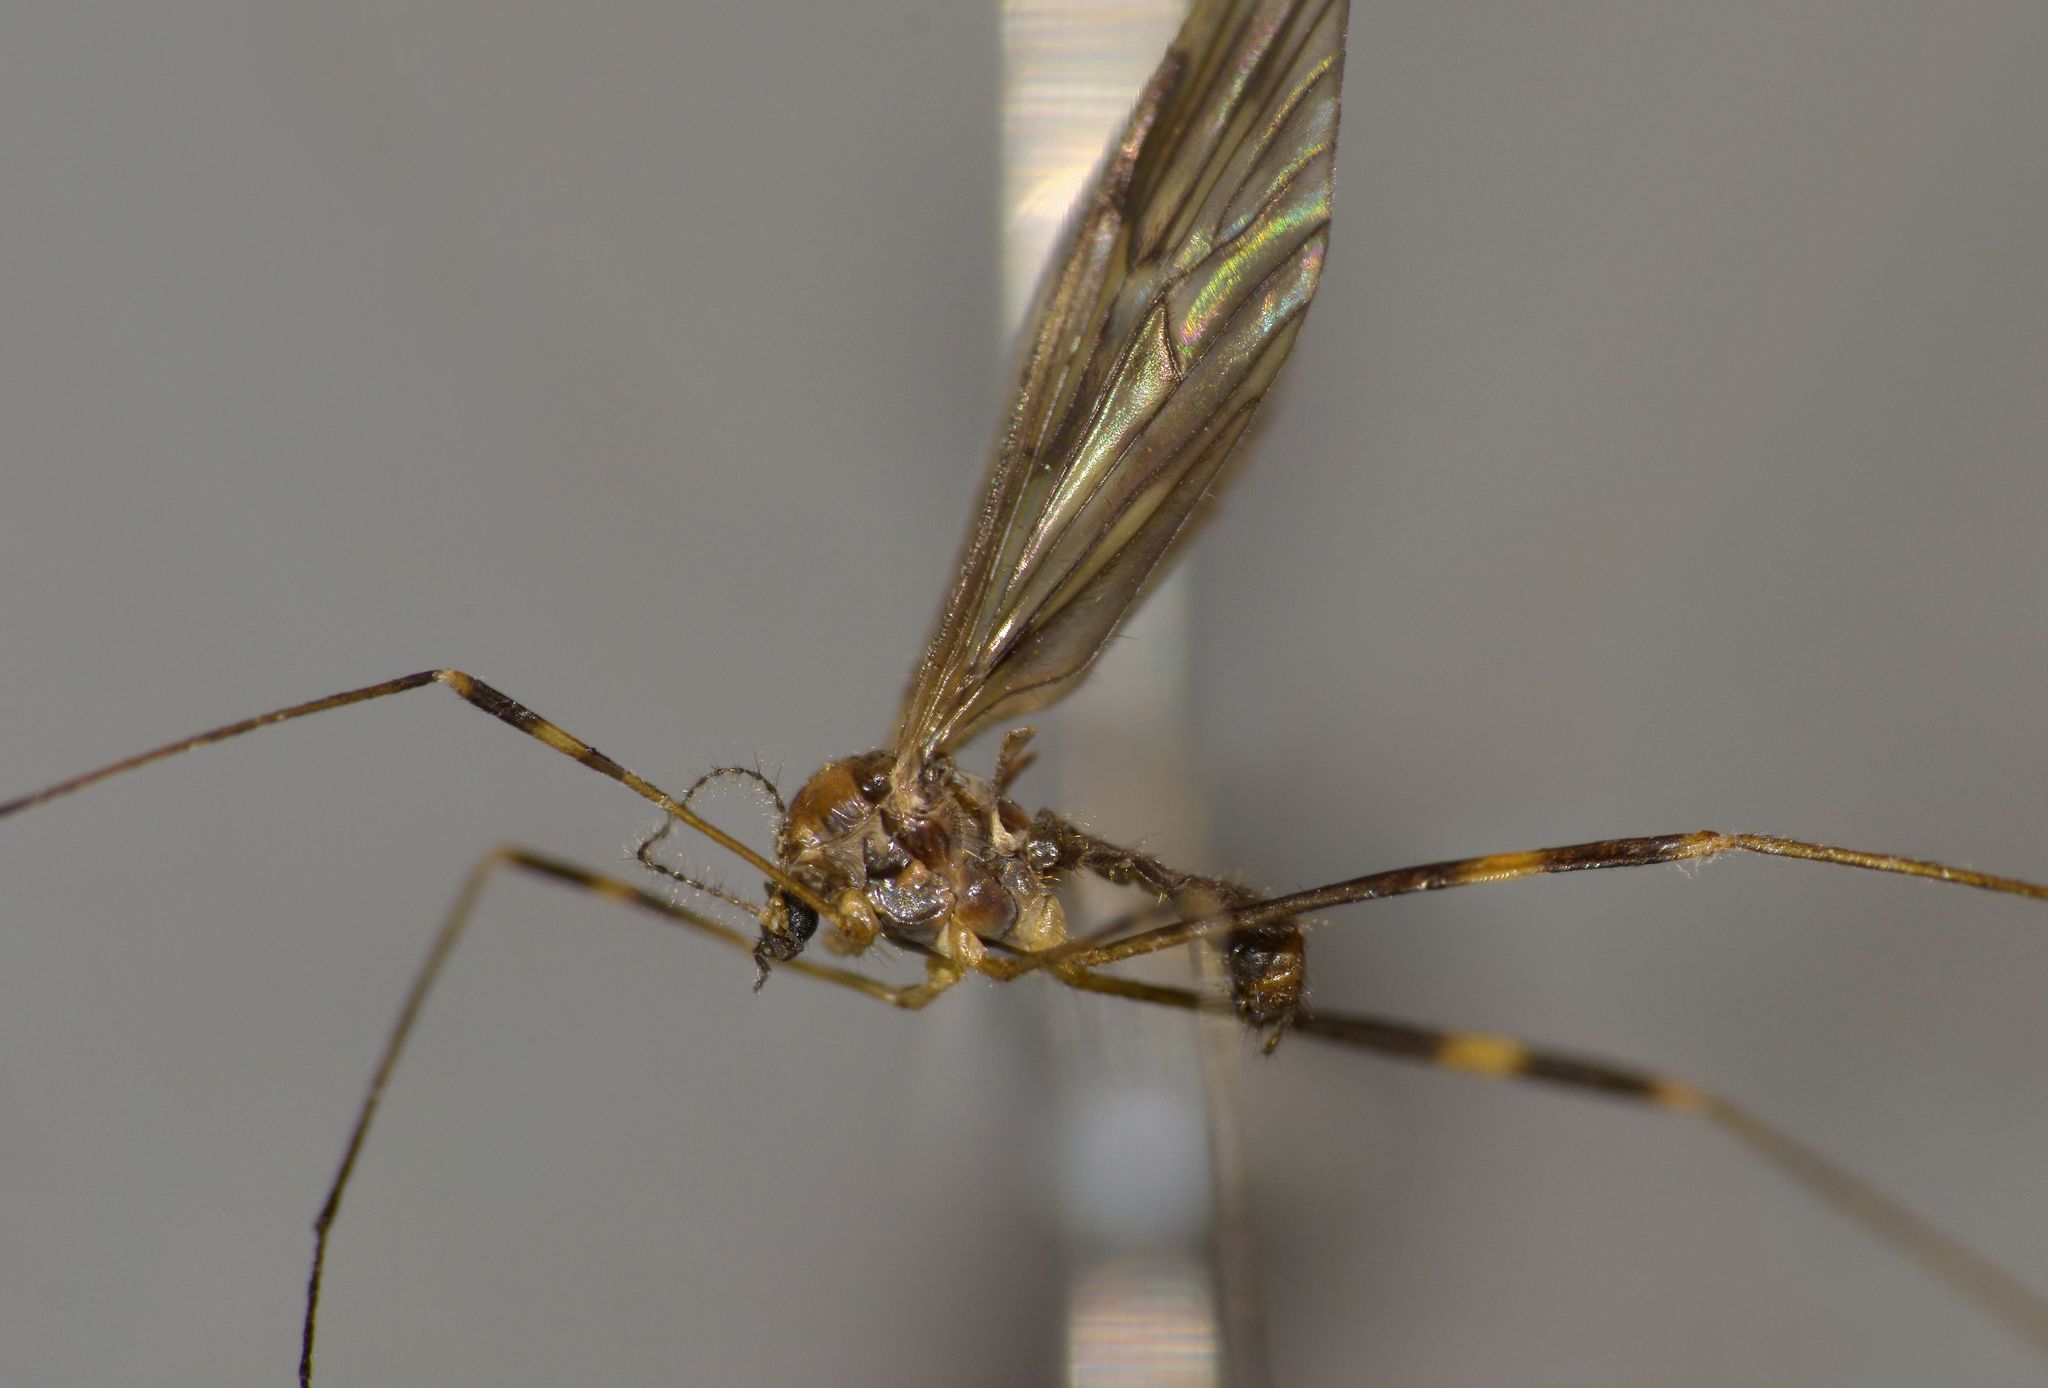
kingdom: Animalia
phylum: Arthropoda
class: Insecta
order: Diptera
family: Limoniidae
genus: Amphineurus
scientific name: Amphineurus fatuus
